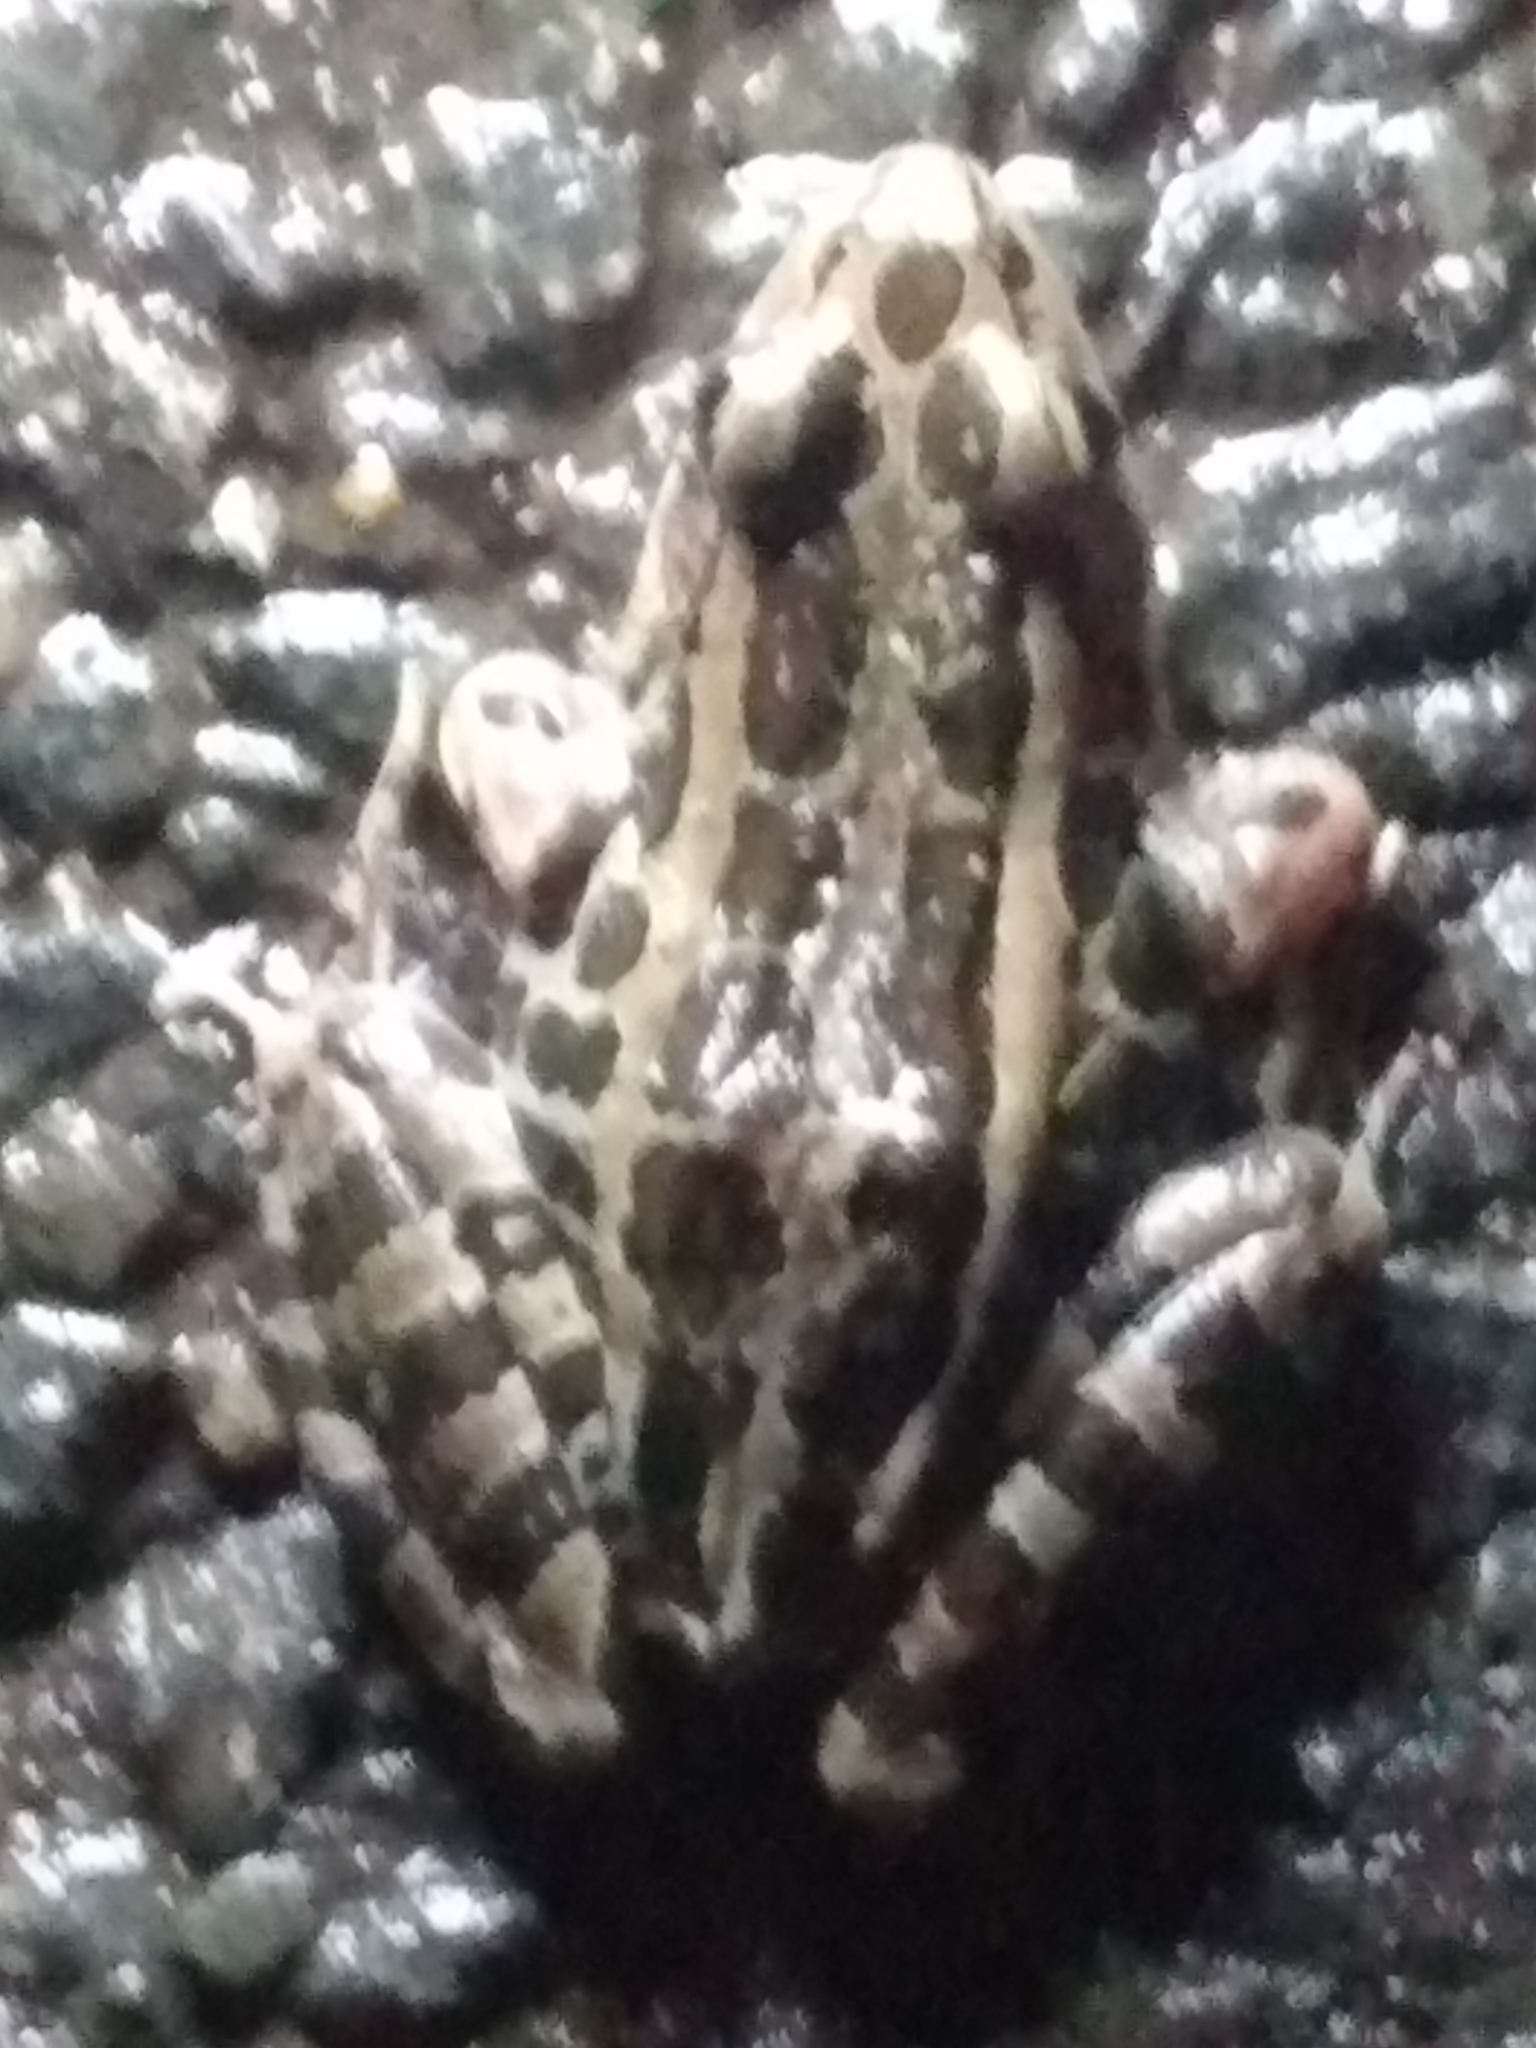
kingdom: Animalia
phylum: Chordata
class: Amphibia
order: Anura
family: Ranidae
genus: Lithobates
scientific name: Lithobates palustris
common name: Pickerel frog
